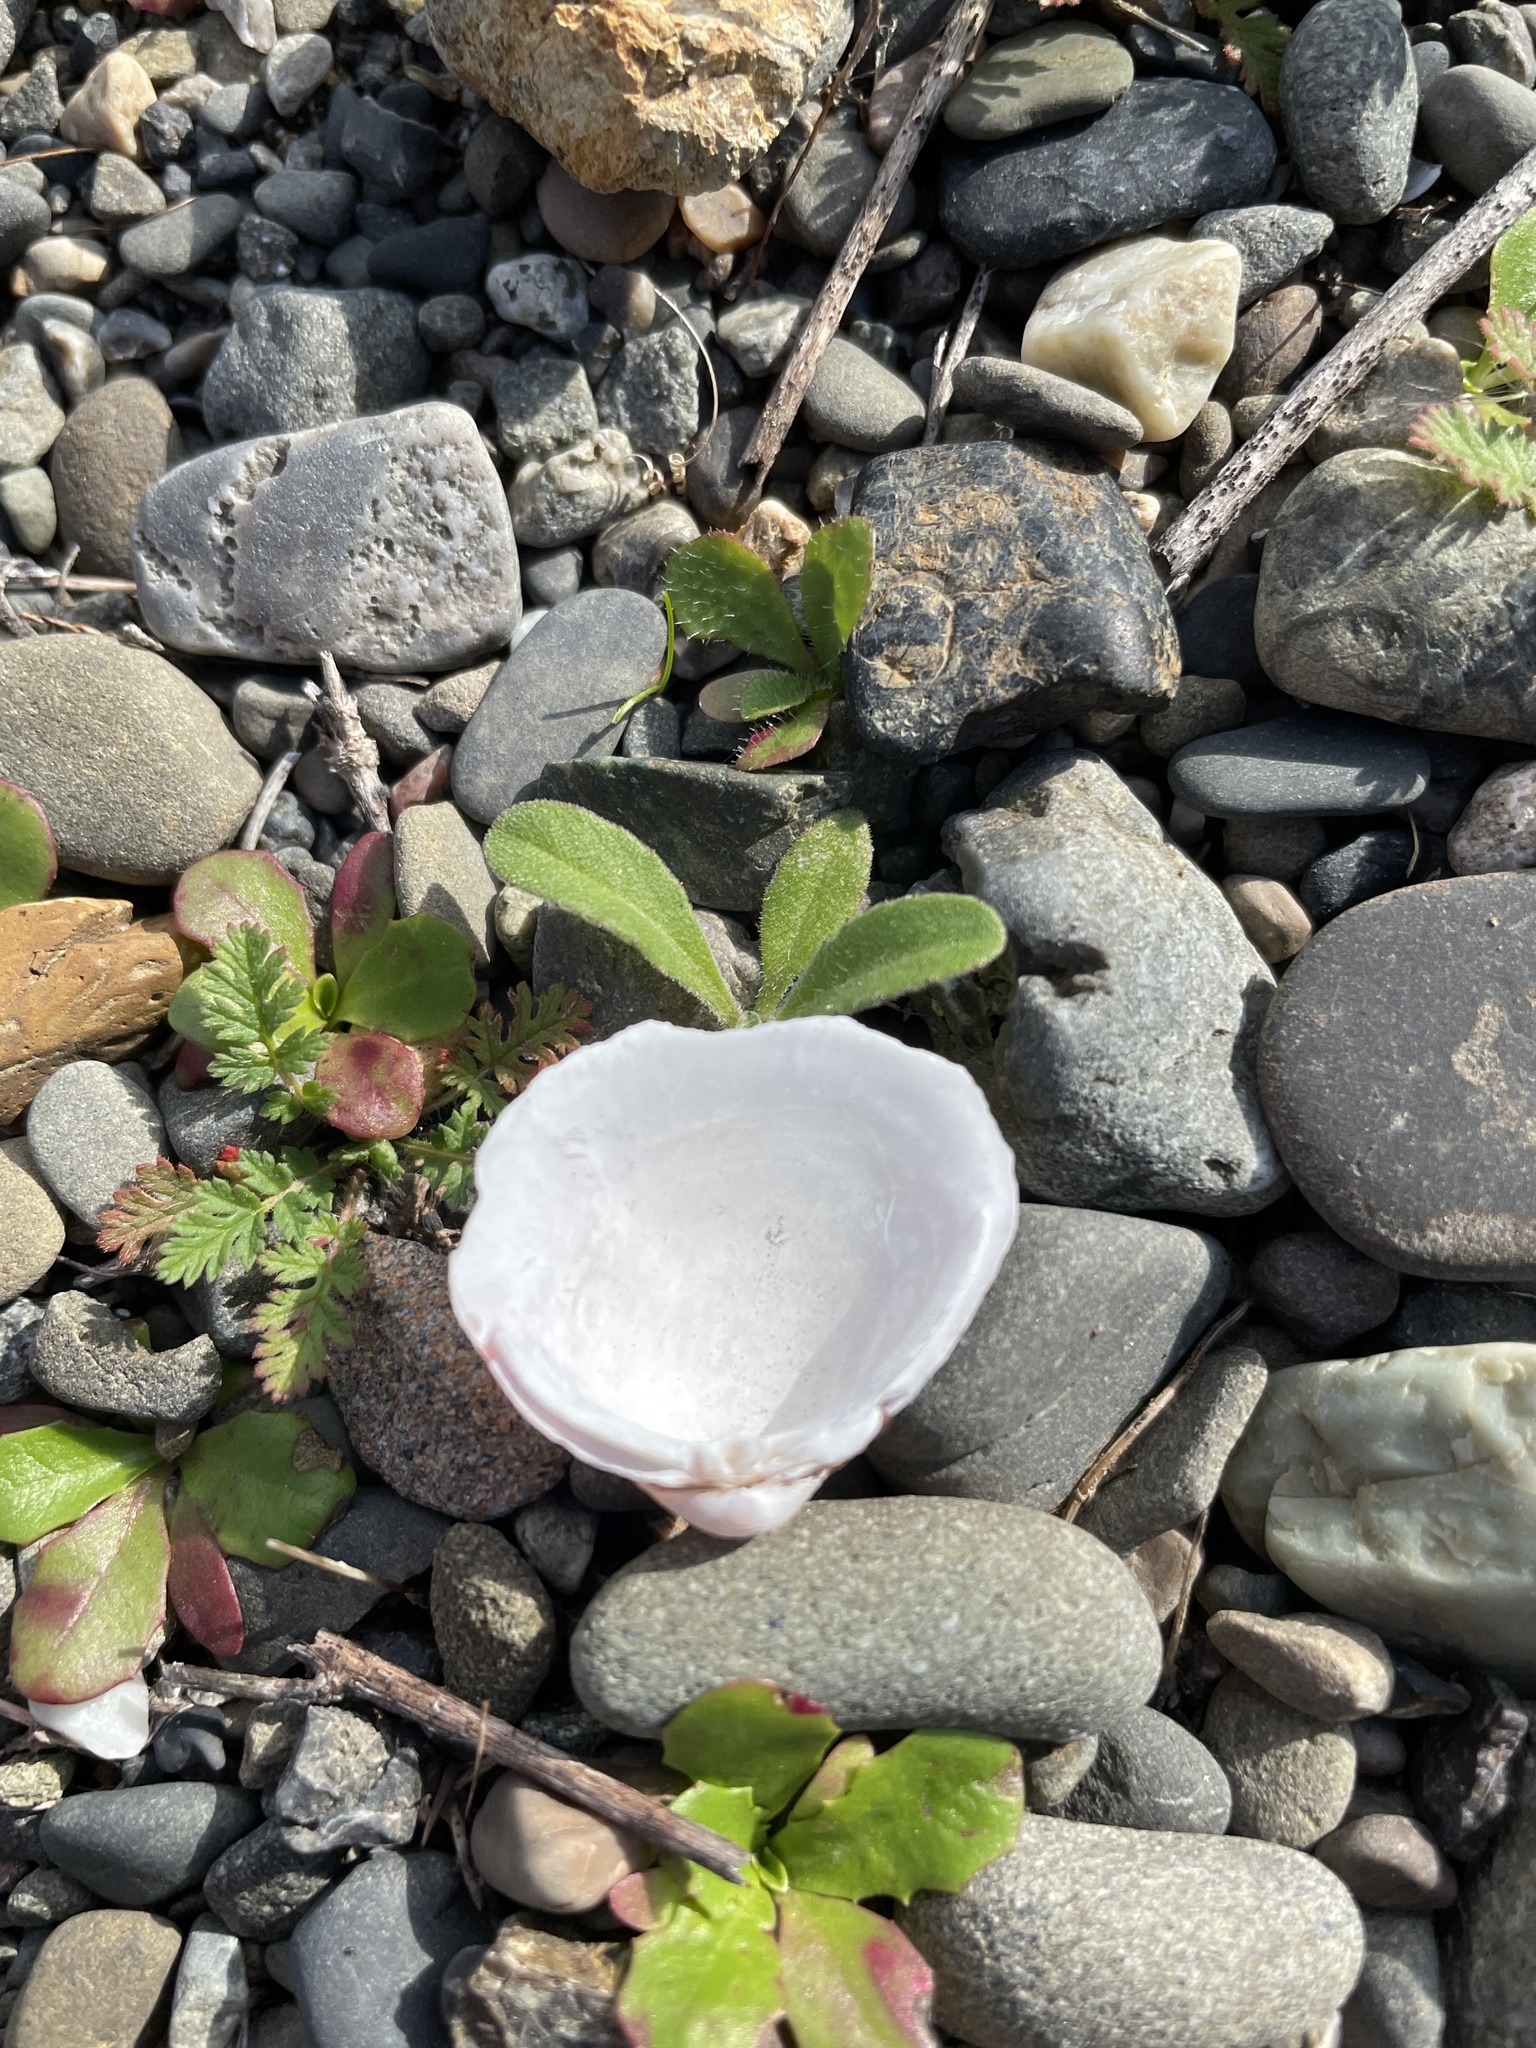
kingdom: Animalia
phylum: Mollusca
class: Bivalvia
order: Venerida
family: Cyrenidae
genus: Corbicula
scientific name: Corbicula fluminea
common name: Asian clam
